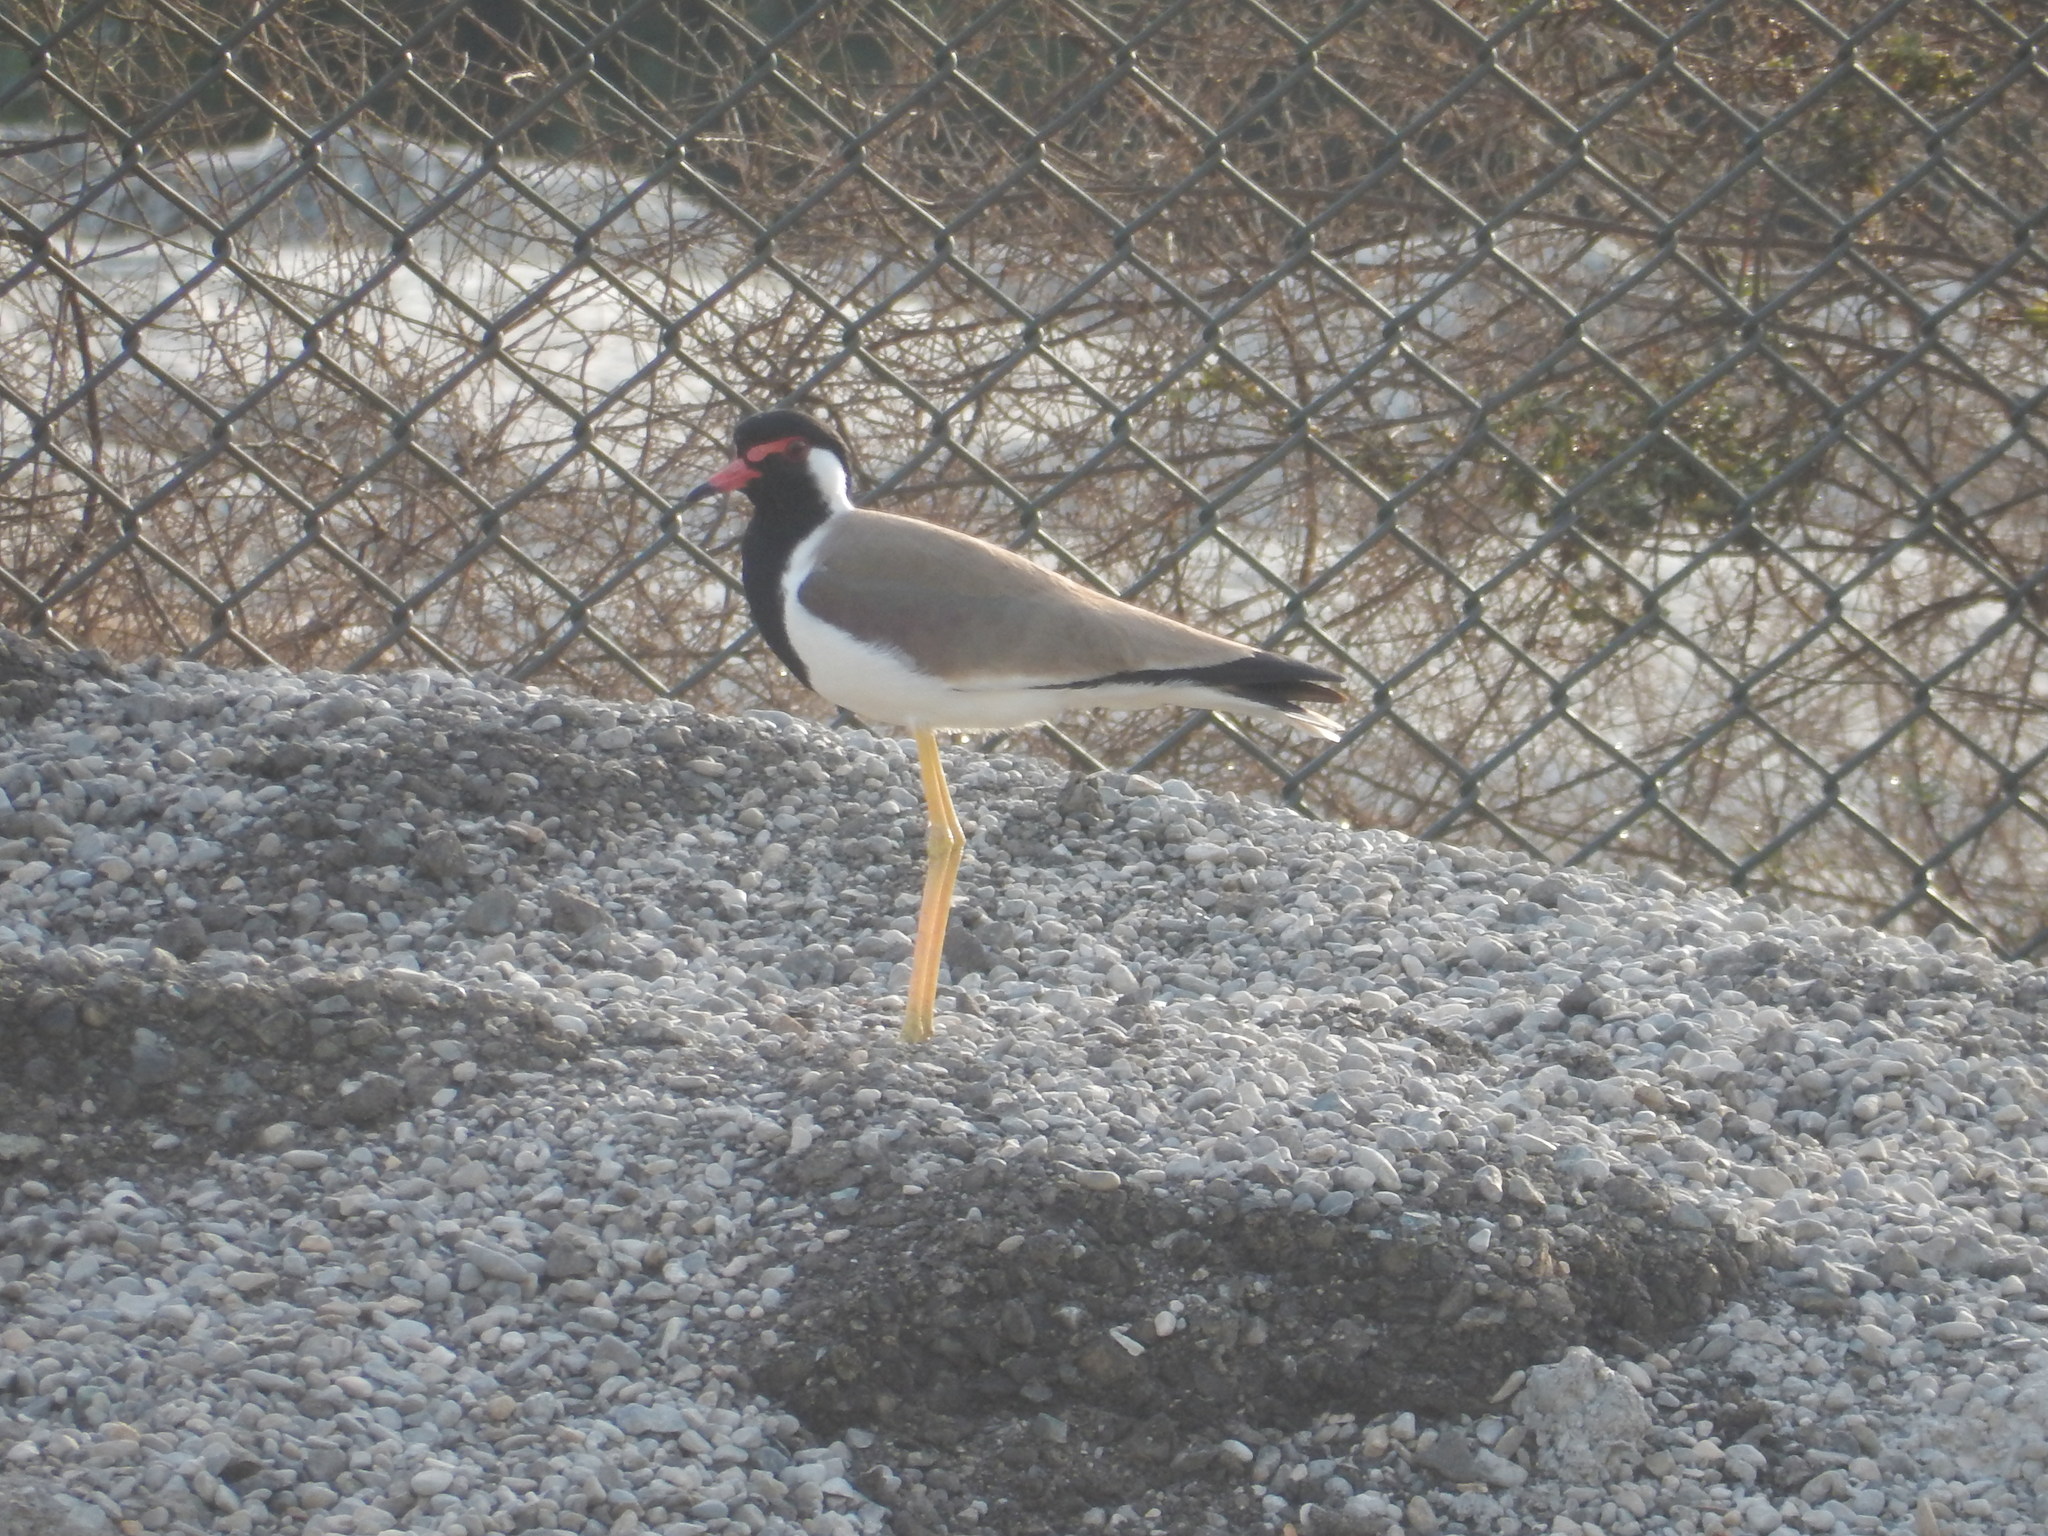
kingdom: Animalia
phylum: Chordata
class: Aves
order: Charadriiformes
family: Charadriidae
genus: Vanellus
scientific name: Vanellus indicus
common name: Red-wattled lapwing
